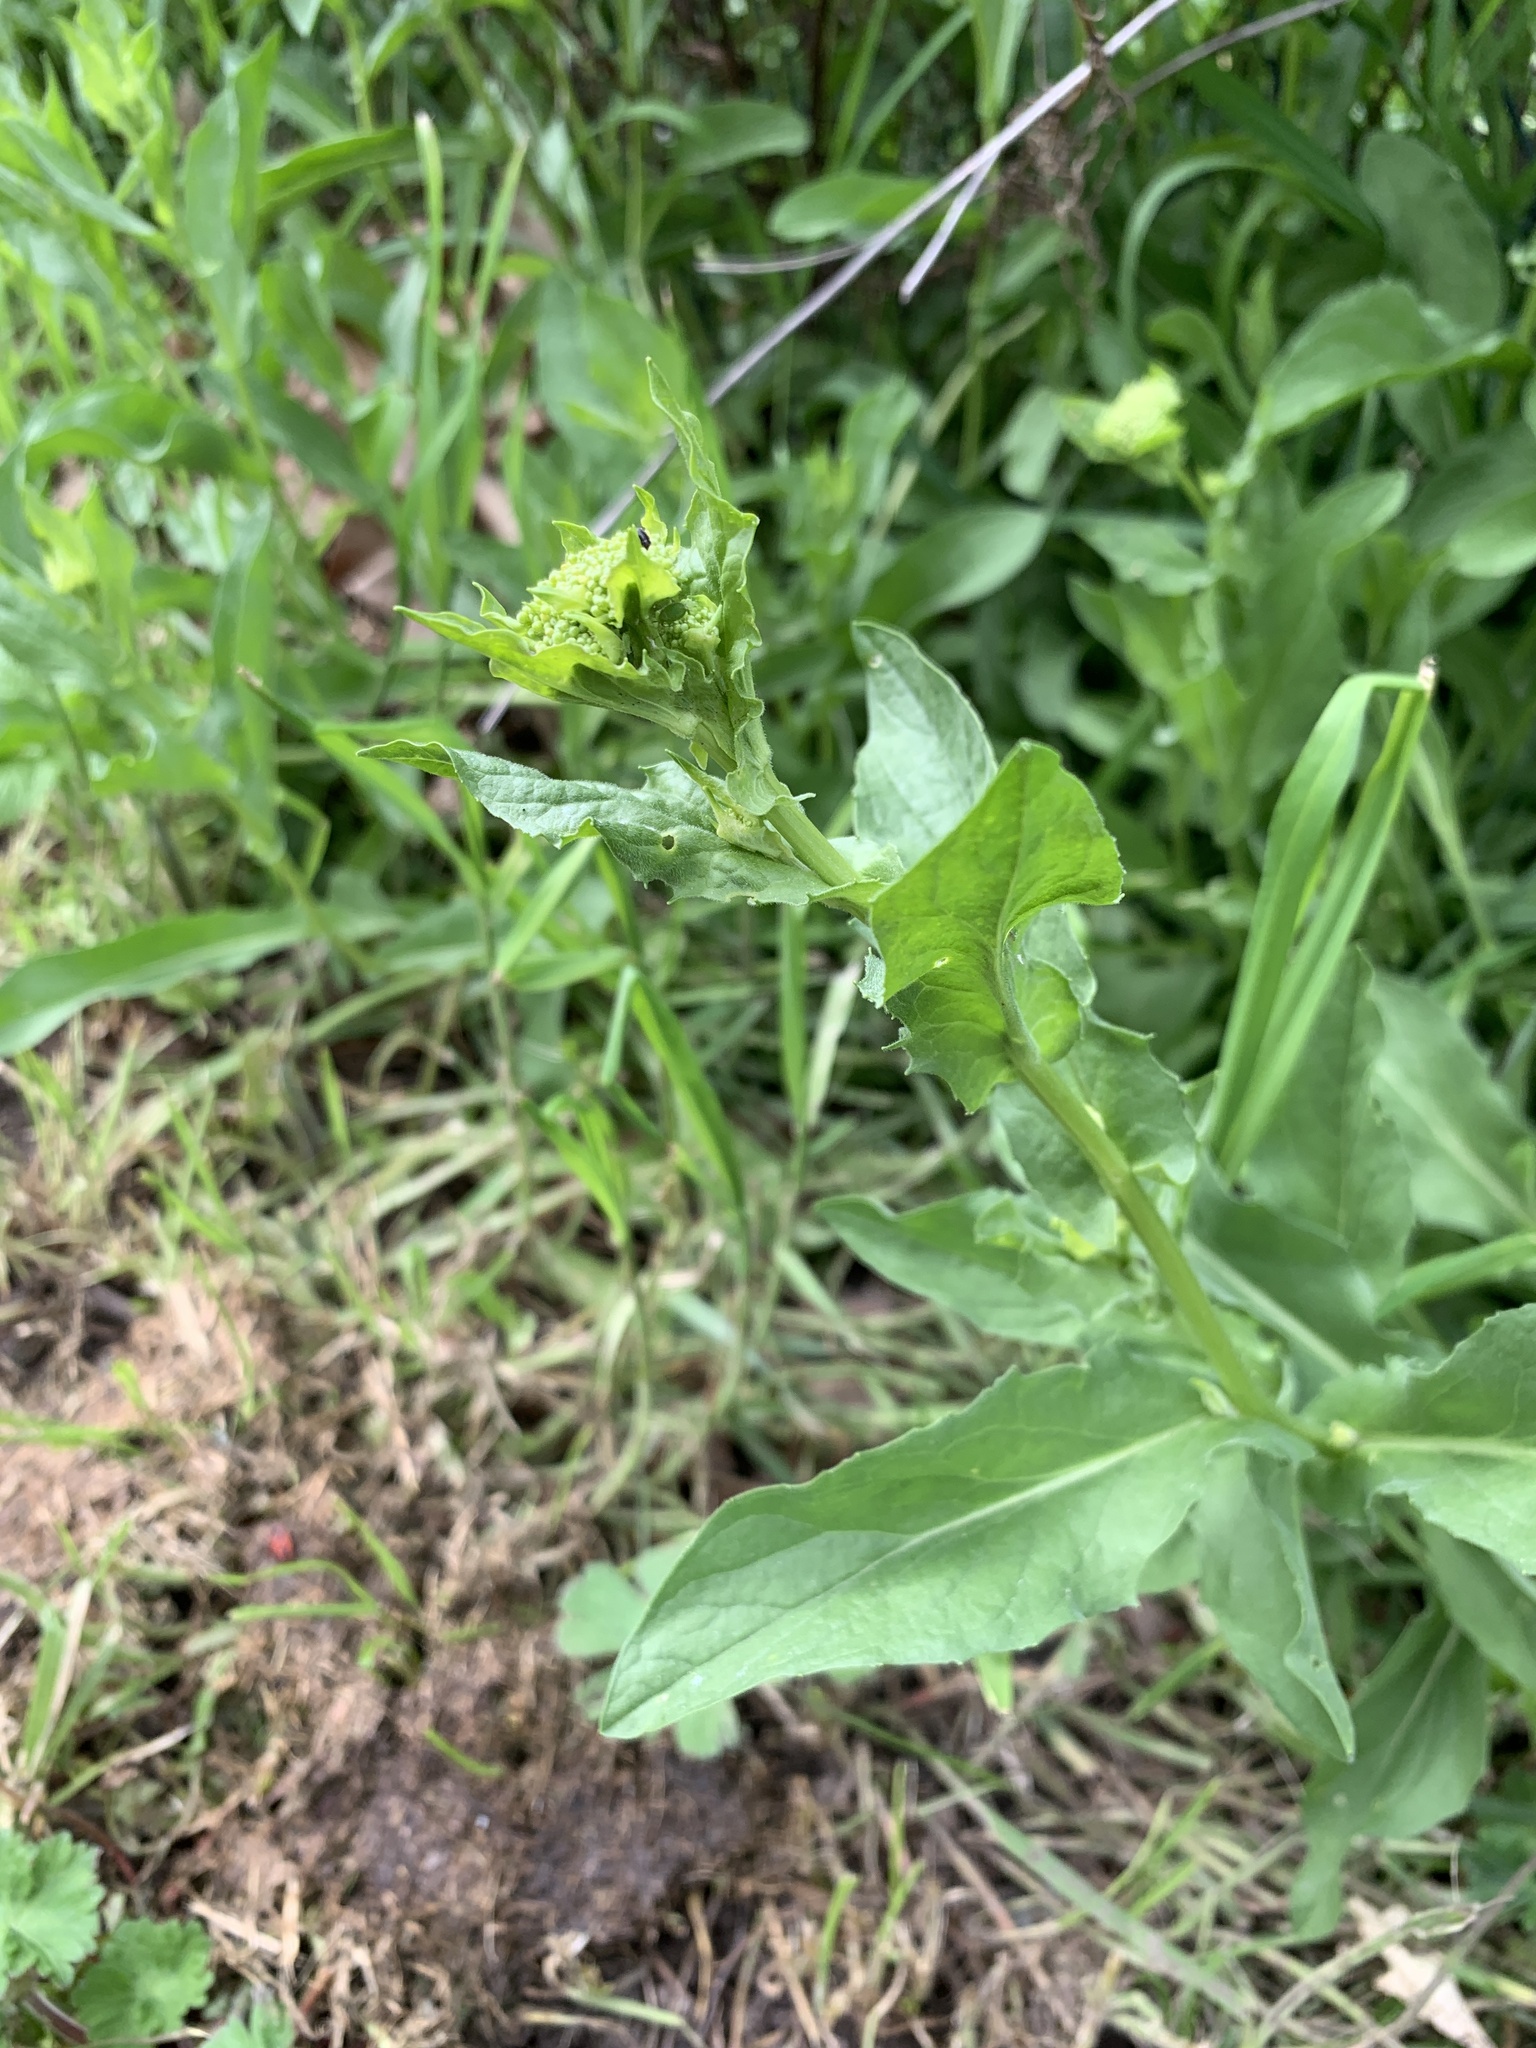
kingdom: Plantae
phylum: Tracheophyta
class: Magnoliopsida
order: Brassicales
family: Brassicaceae
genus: Lepidium
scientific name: Lepidium draba
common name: Hoary cress
